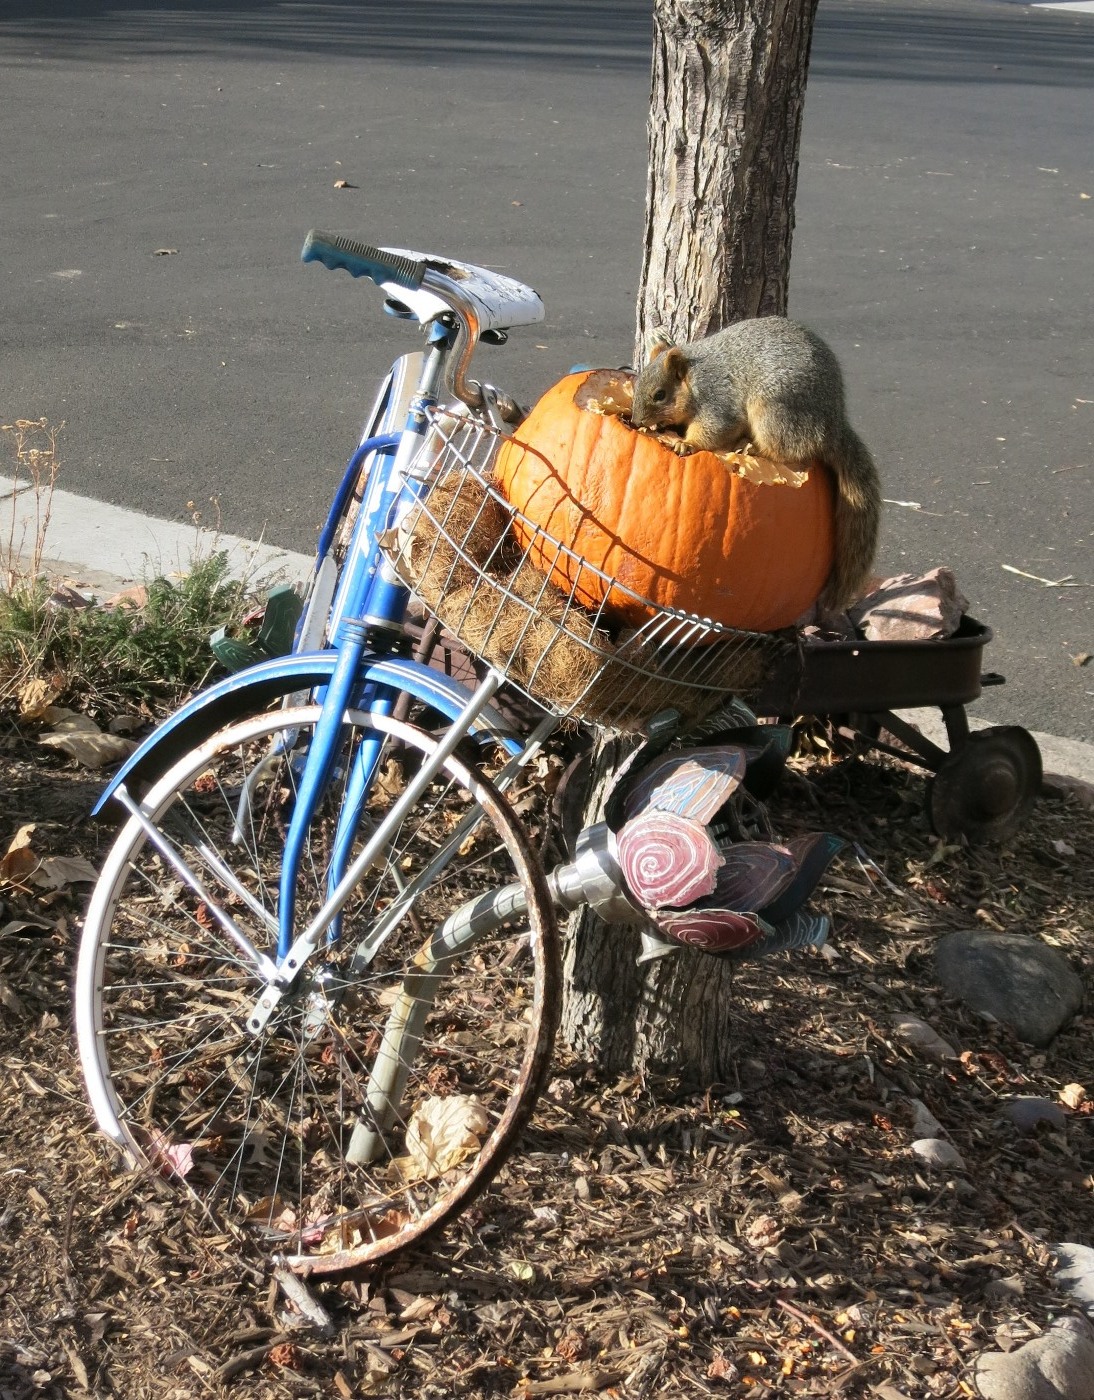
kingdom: Animalia
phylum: Chordata
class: Mammalia
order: Rodentia
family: Sciuridae
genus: Sciurus
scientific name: Sciurus niger
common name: Fox squirrel
